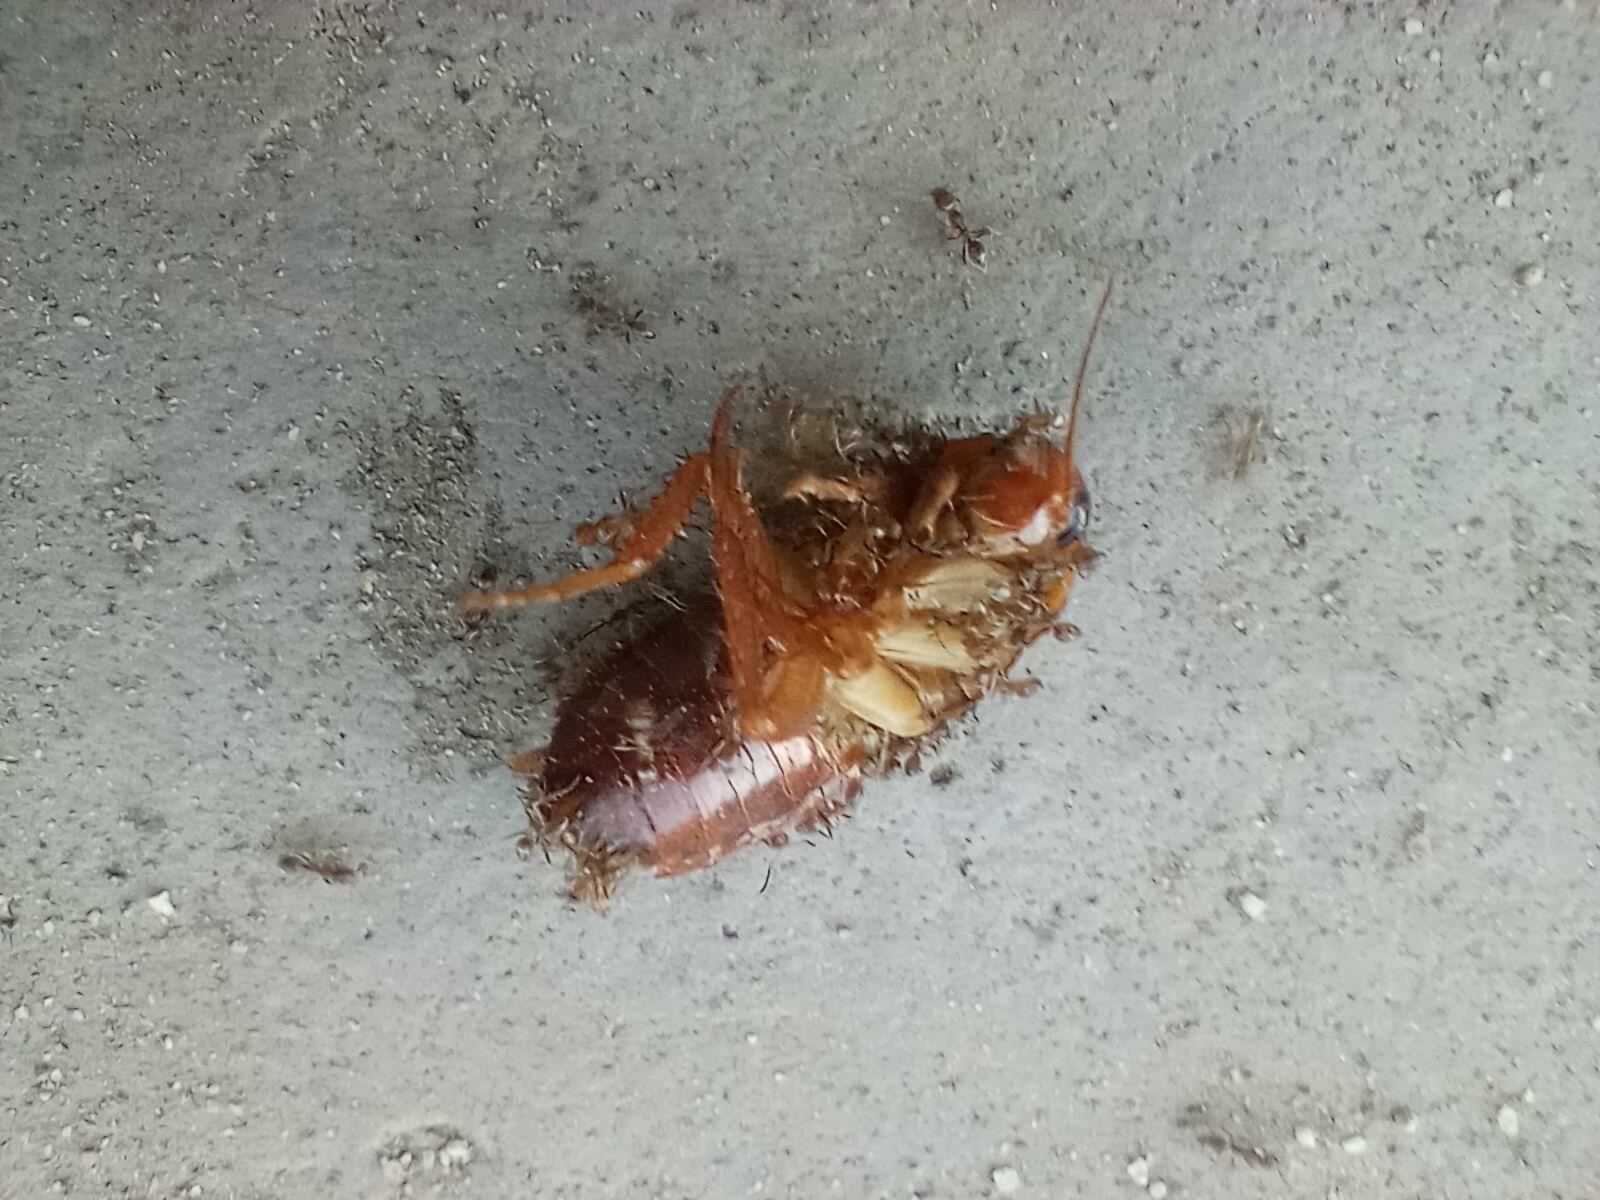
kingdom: Animalia
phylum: Arthropoda
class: Insecta
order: Hymenoptera
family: Formicidae
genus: Linepithema
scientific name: Linepithema humile
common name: Argentine ant
